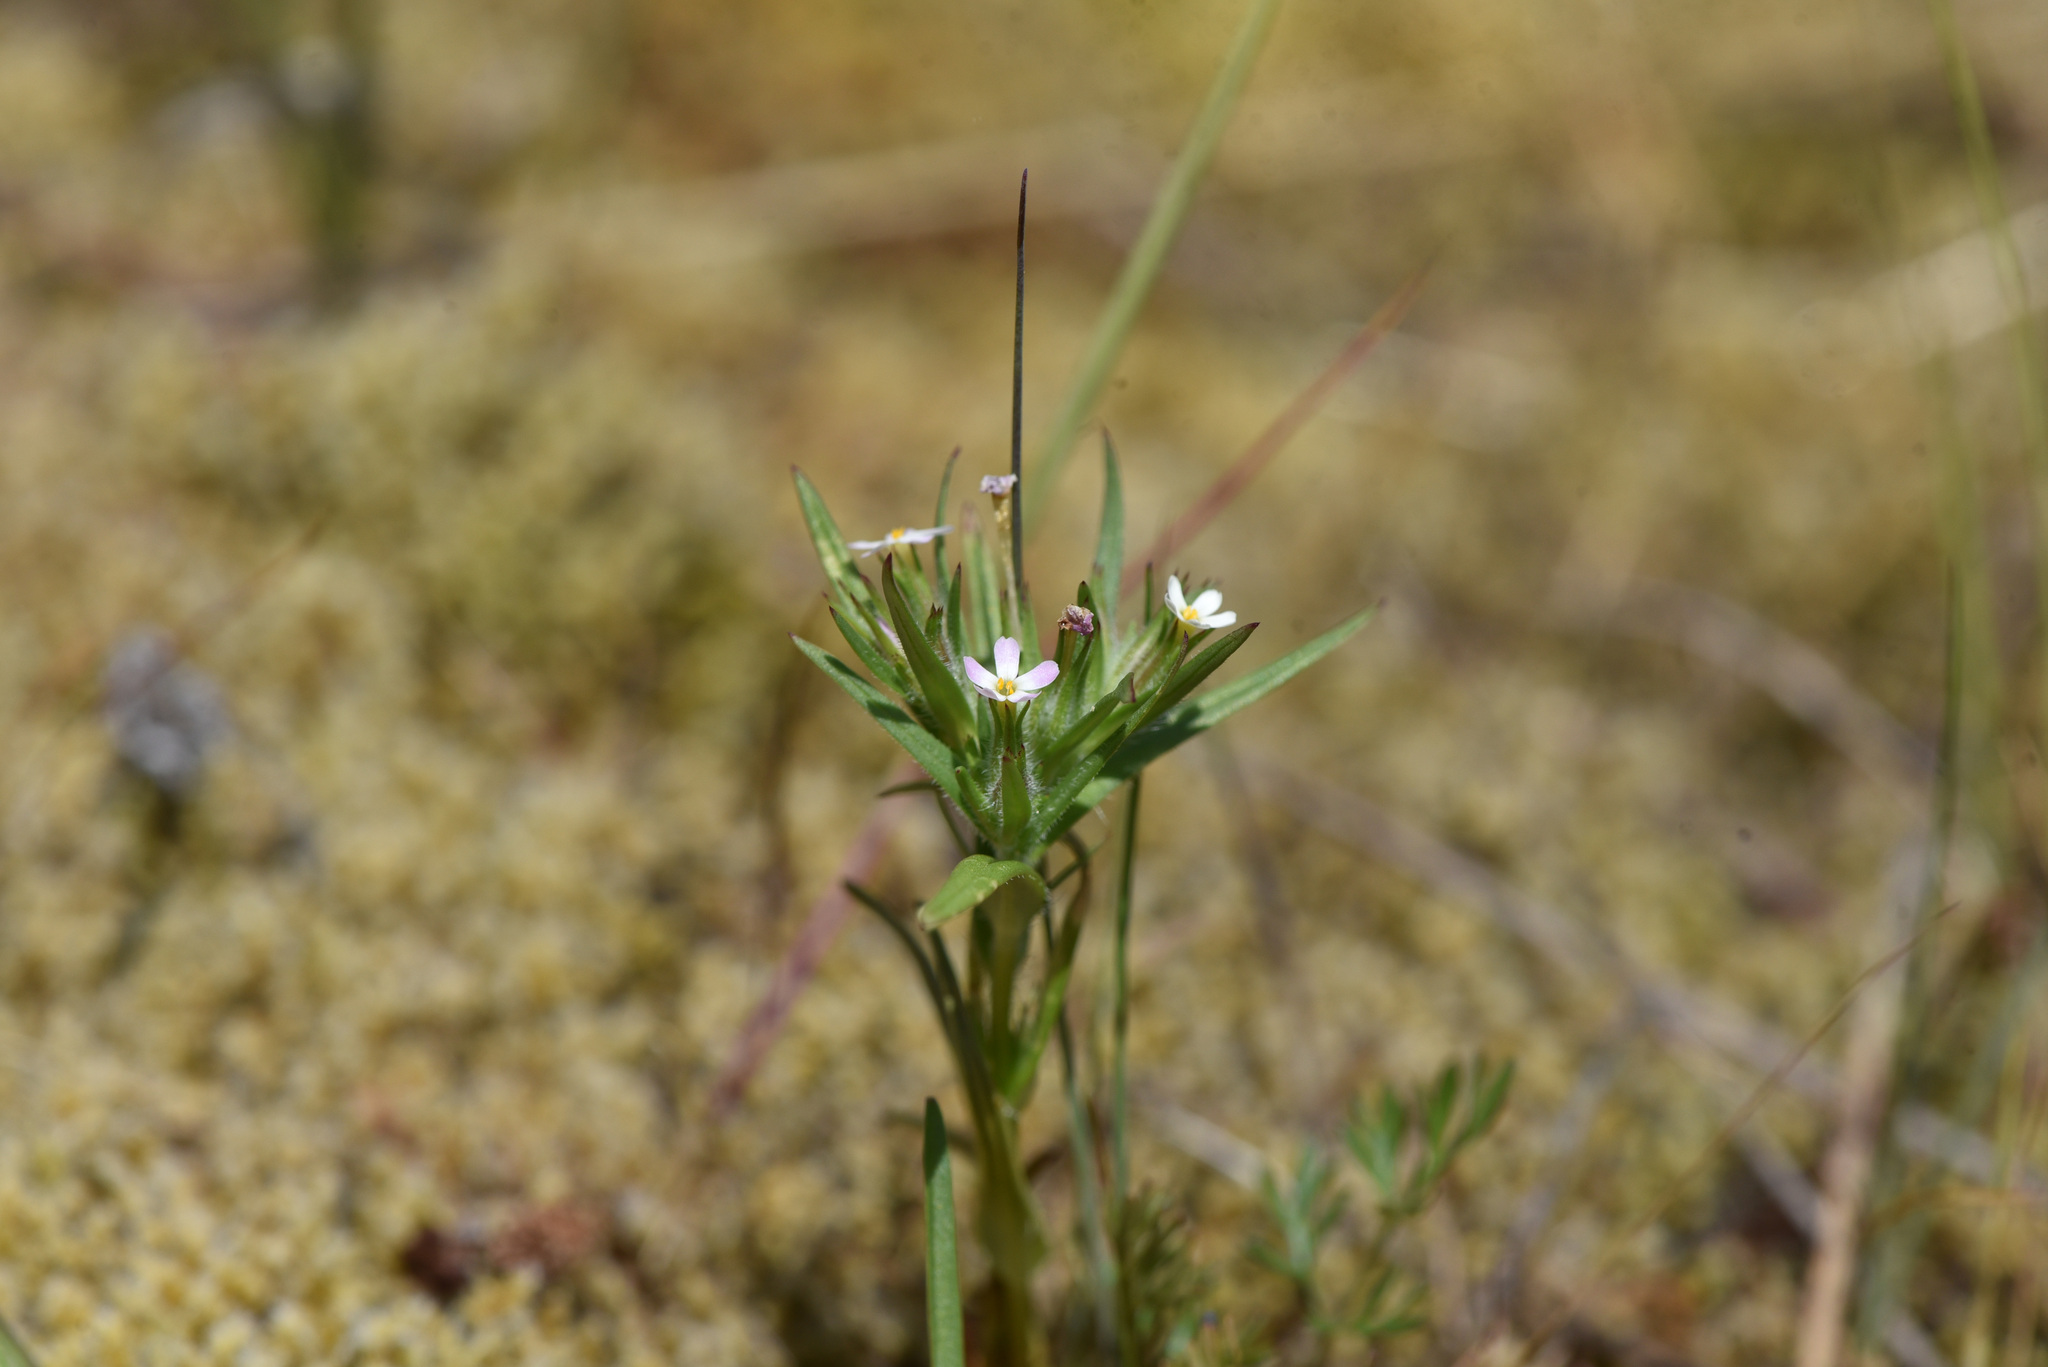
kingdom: Plantae
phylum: Tracheophyta
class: Magnoliopsida
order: Ericales
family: Polemoniaceae
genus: Phlox
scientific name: Phlox gracilis
